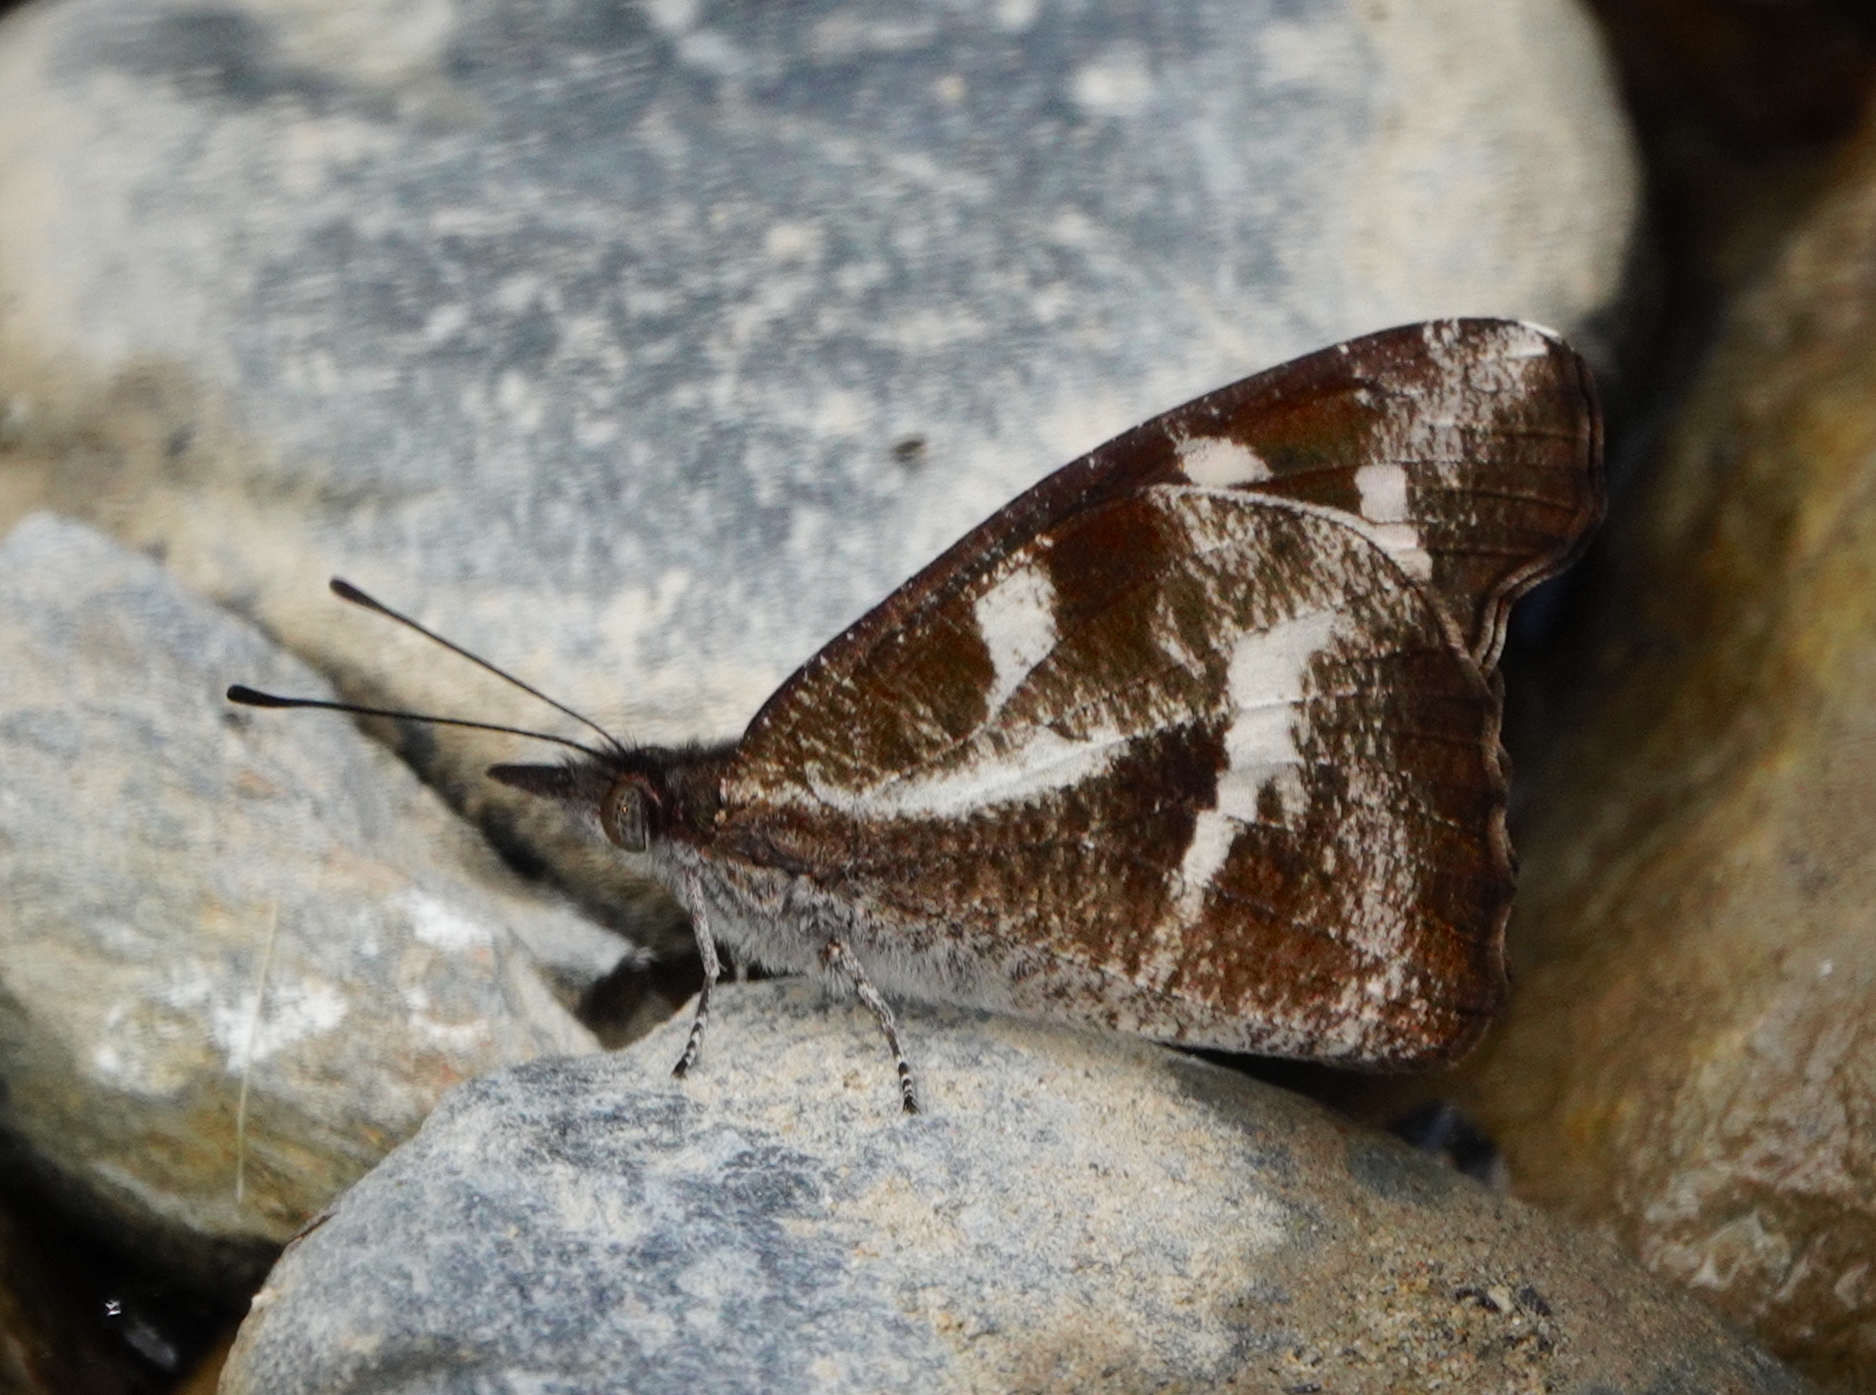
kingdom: Animalia
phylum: Arthropoda
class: Insecta
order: Lepidoptera
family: Nymphalidae
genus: Libythea
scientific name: Libythea narina
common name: Whitespotted beak
